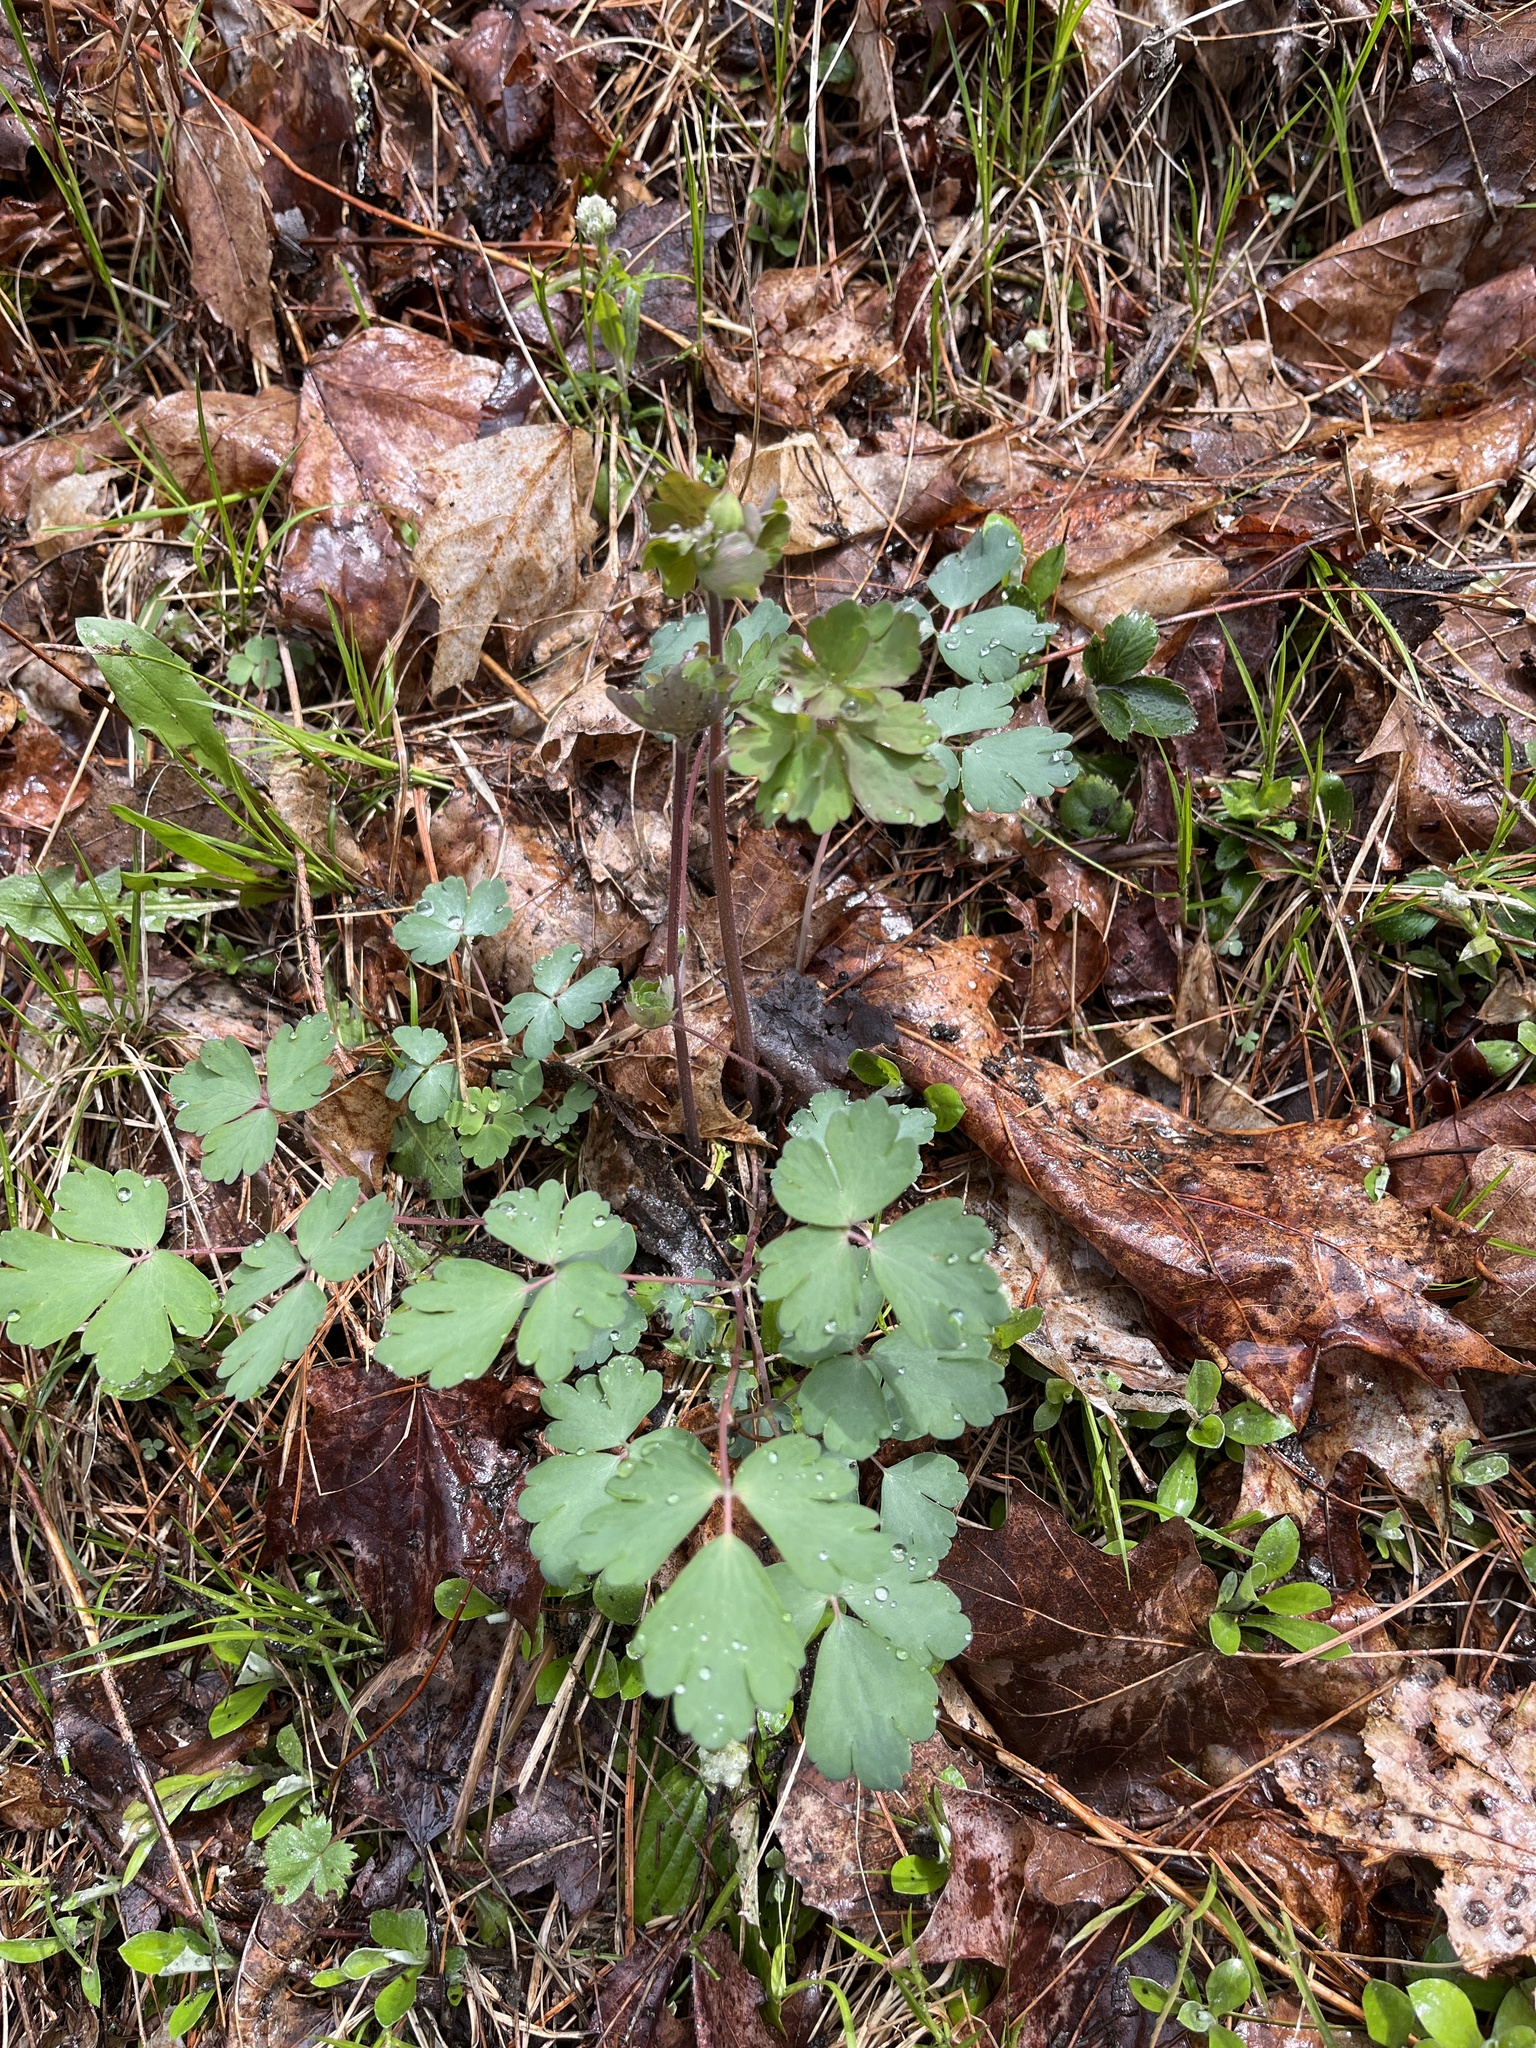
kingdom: Plantae
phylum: Tracheophyta
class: Magnoliopsida
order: Ranunculales
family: Ranunculaceae
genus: Aquilegia
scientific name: Aquilegia canadensis
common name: American columbine
